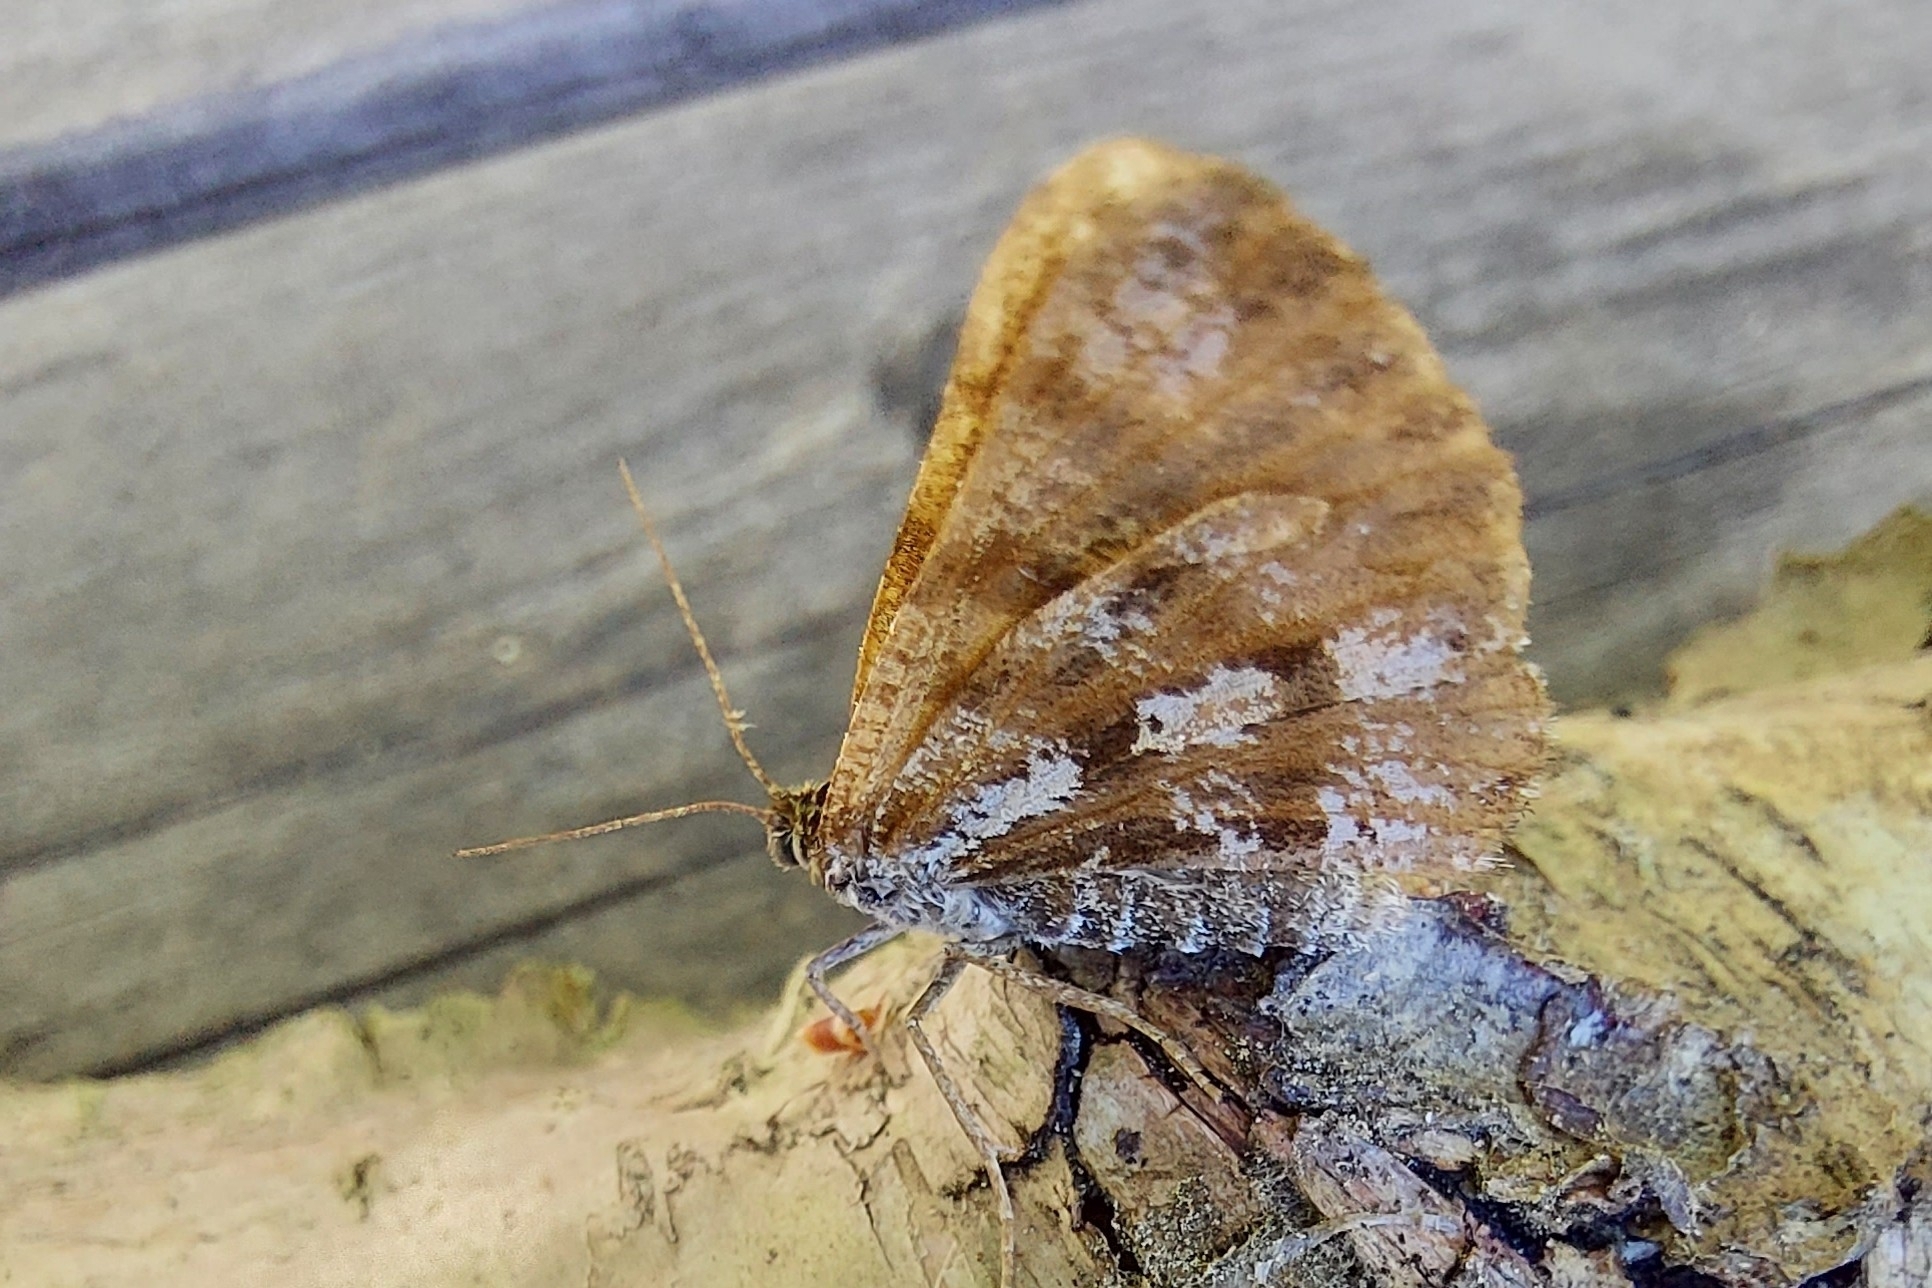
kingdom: Animalia
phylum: Arthropoda
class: Insecta
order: Lepidoptera
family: Geometridae
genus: Bupalus
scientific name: Bupalus piniaria
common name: Bordered white
